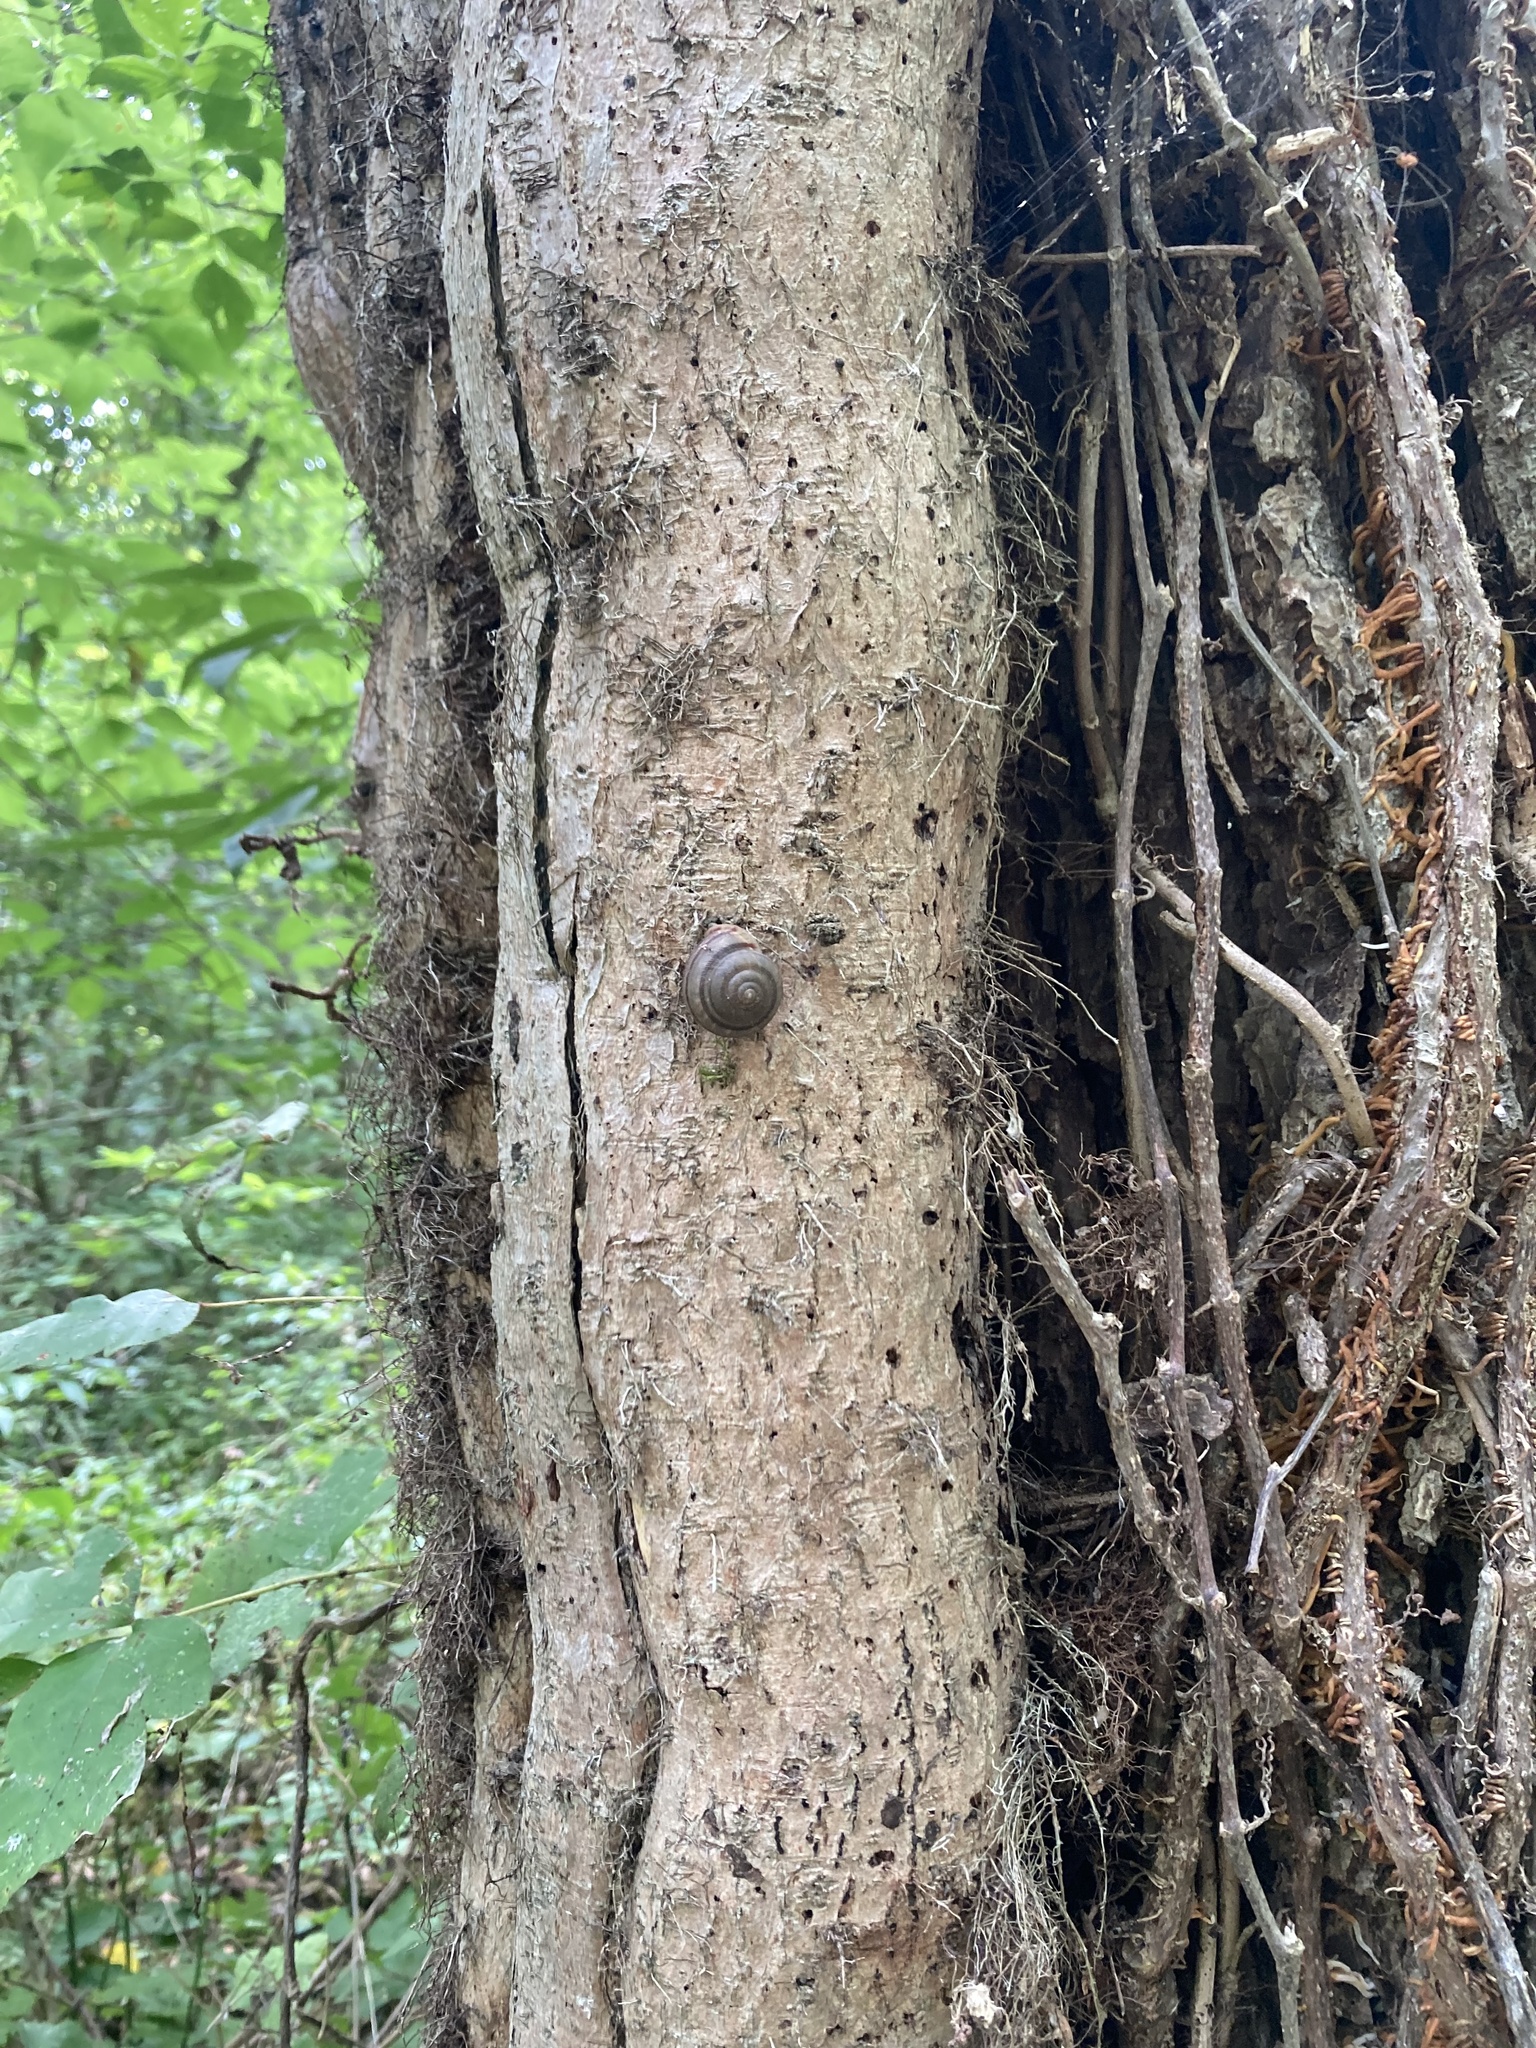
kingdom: Plantae
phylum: Tracheophyta
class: Magnoliopsida
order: Sapindales
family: Anacardiaceae
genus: Toxicodendron
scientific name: Toxicodendron radicans
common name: Poison ivy
